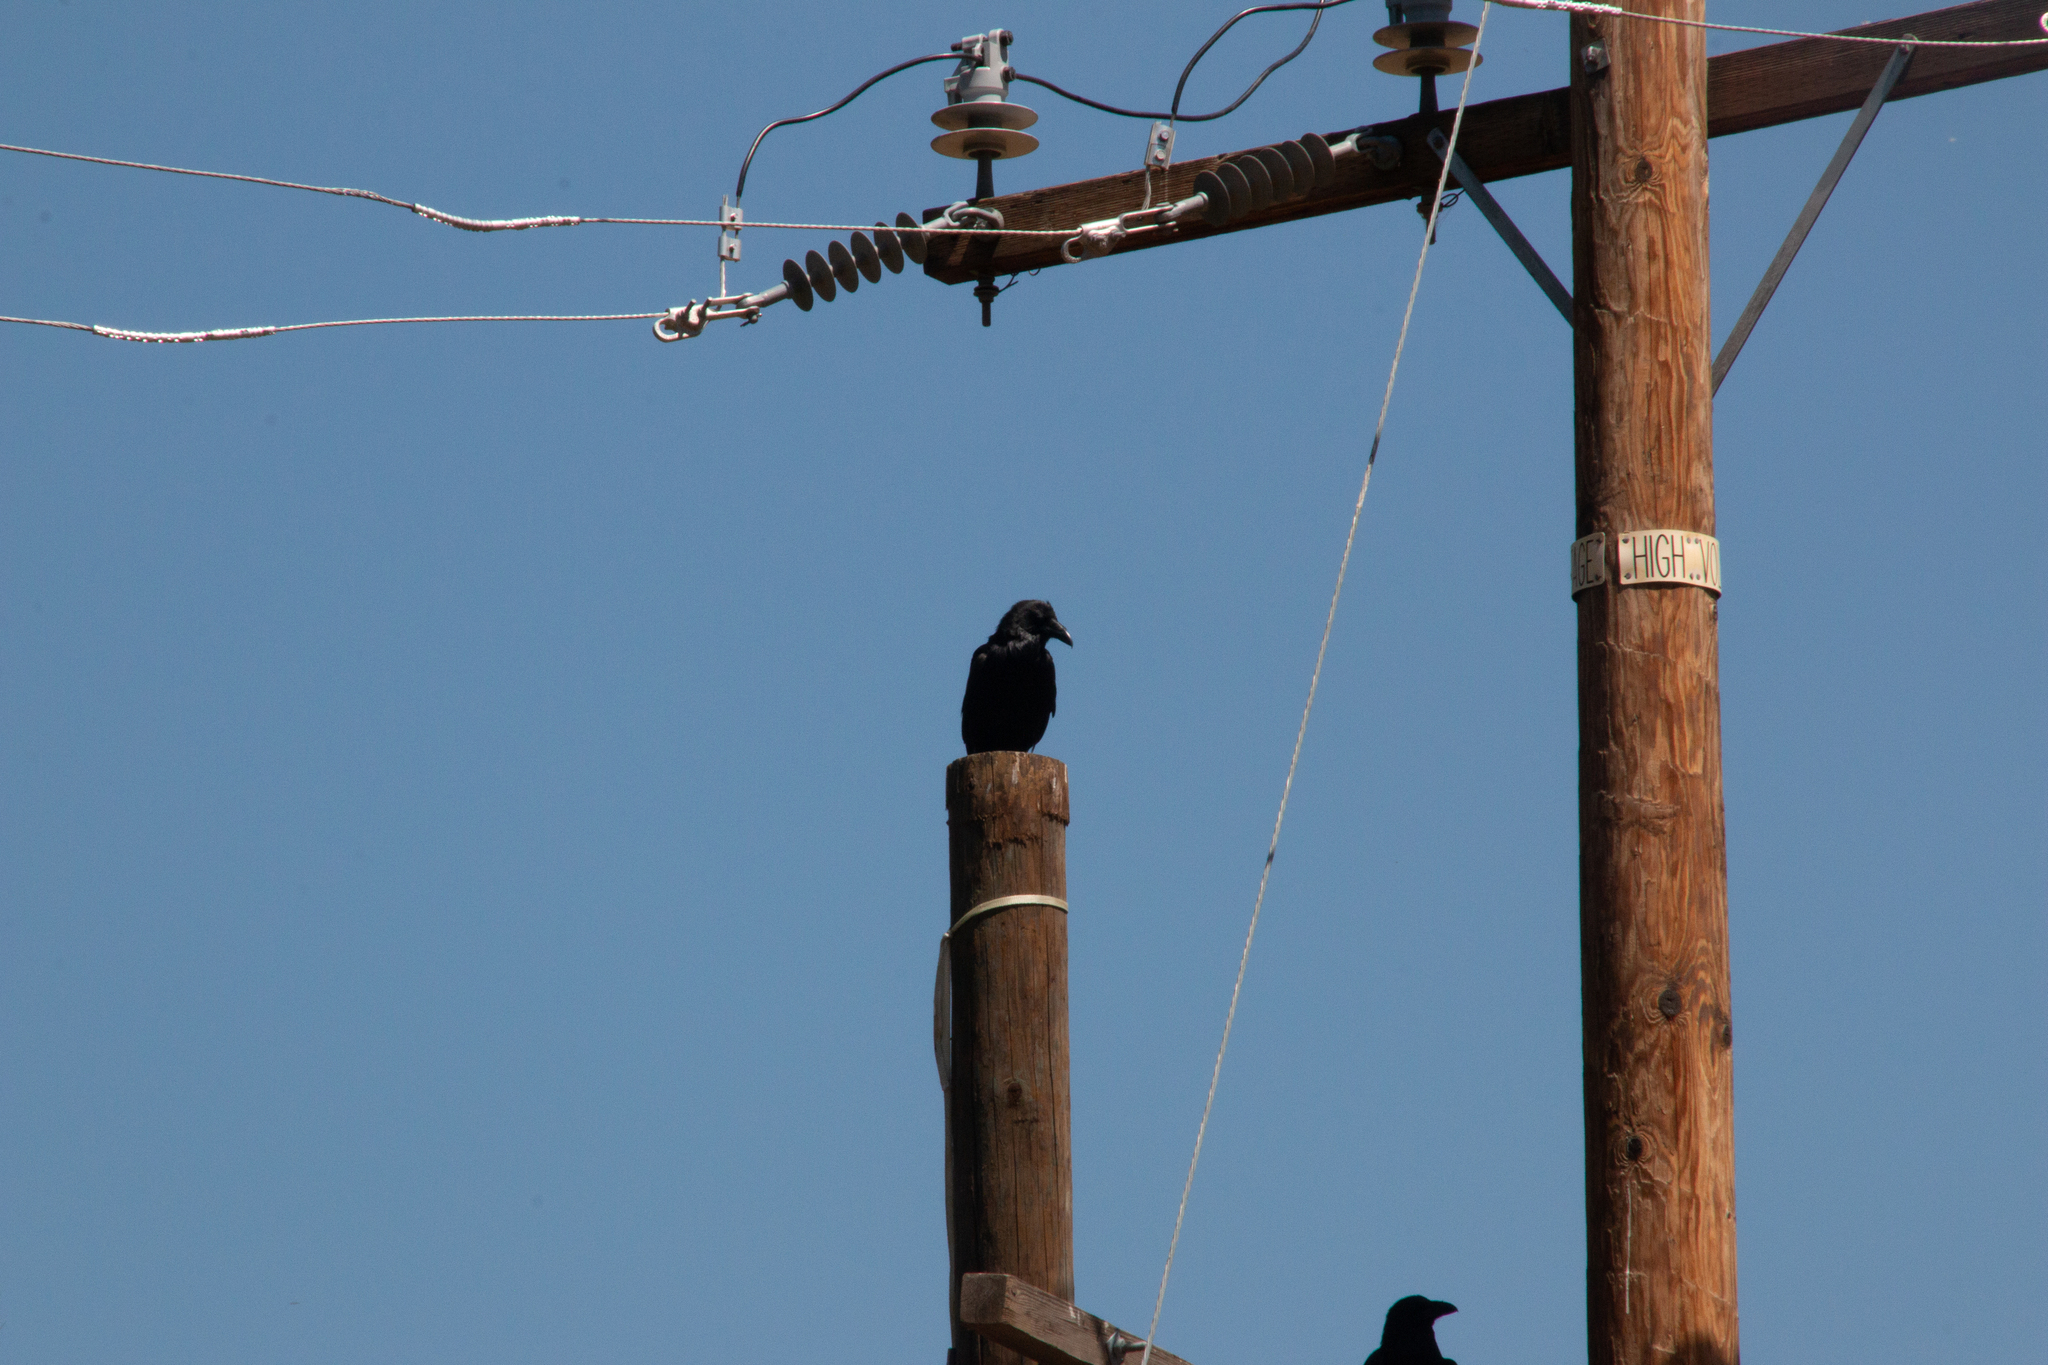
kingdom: Animalia
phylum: Chordata
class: Aves
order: Passeriformes
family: Corvidae
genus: Corvus
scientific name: Corvus corax
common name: Common raven
